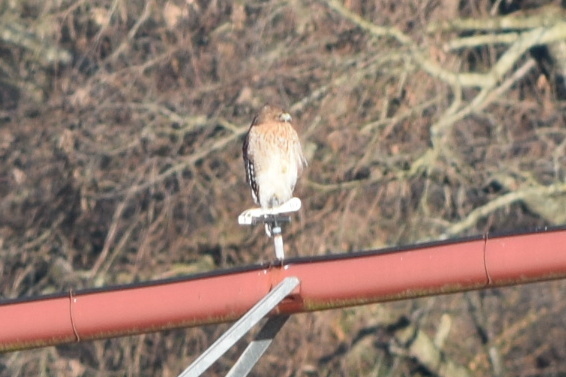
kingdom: Animalia
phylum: Chordata
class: Aves
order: Accipitriformes
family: Accipitridae
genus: Buteo
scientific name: Buteo lineatus
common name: Red-shouldered hawk
